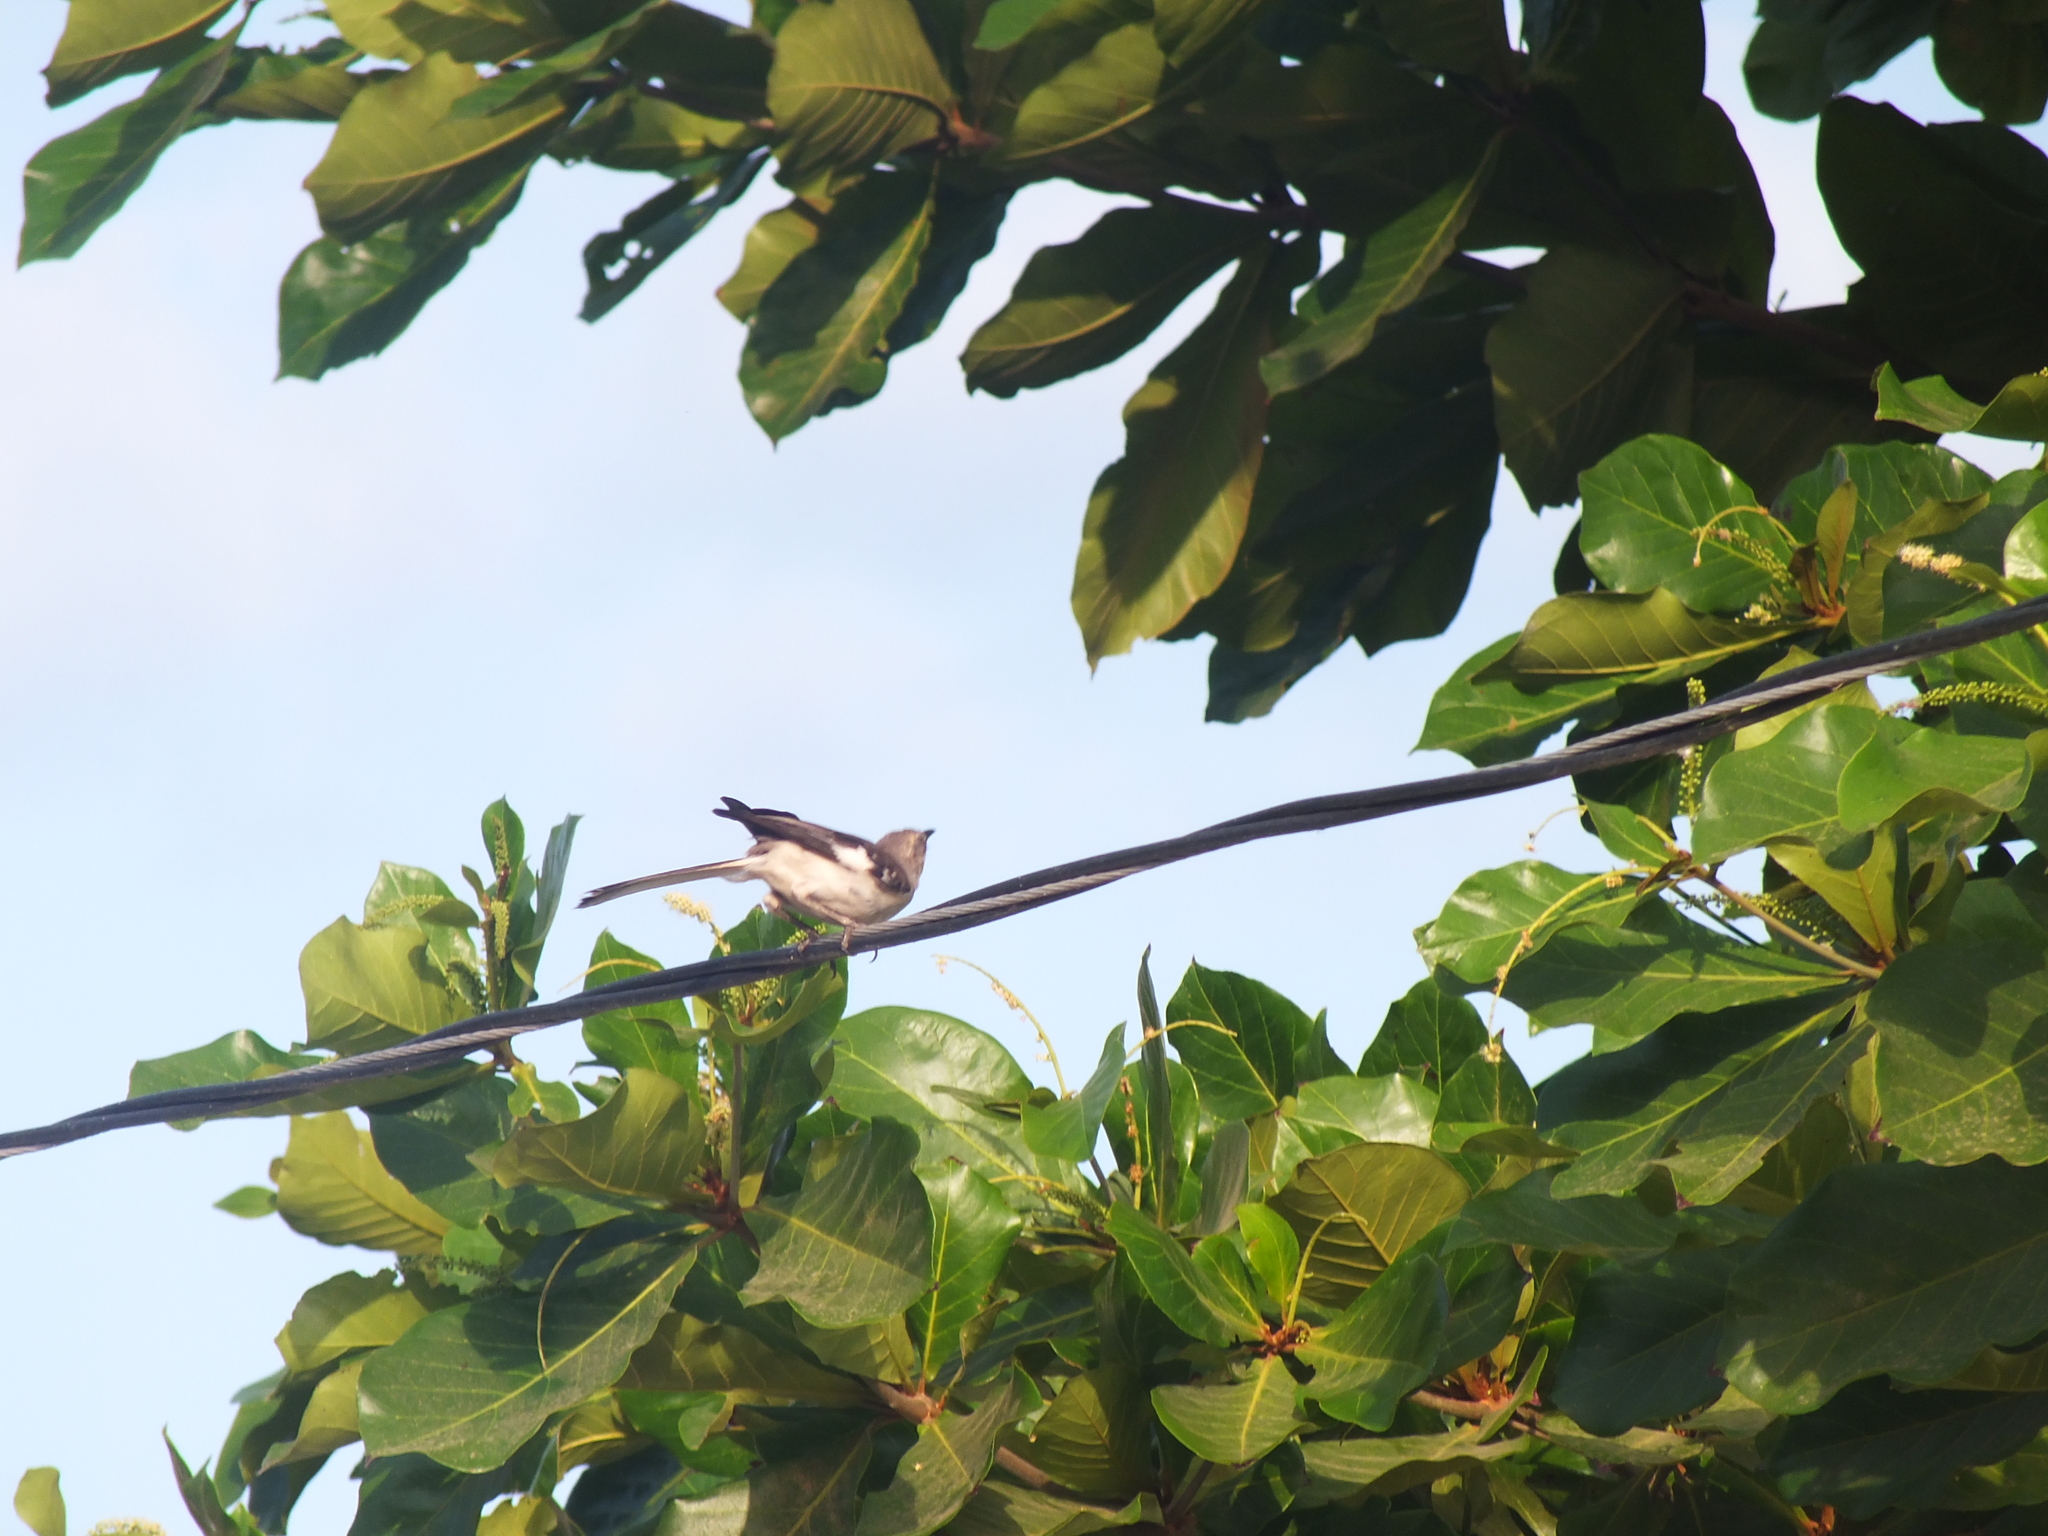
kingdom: Animalia
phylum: Chordata
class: Aves
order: Passeriformes
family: Mimidae
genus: Mimus
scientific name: Mimus polyglottos
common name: Northern mockingbird
